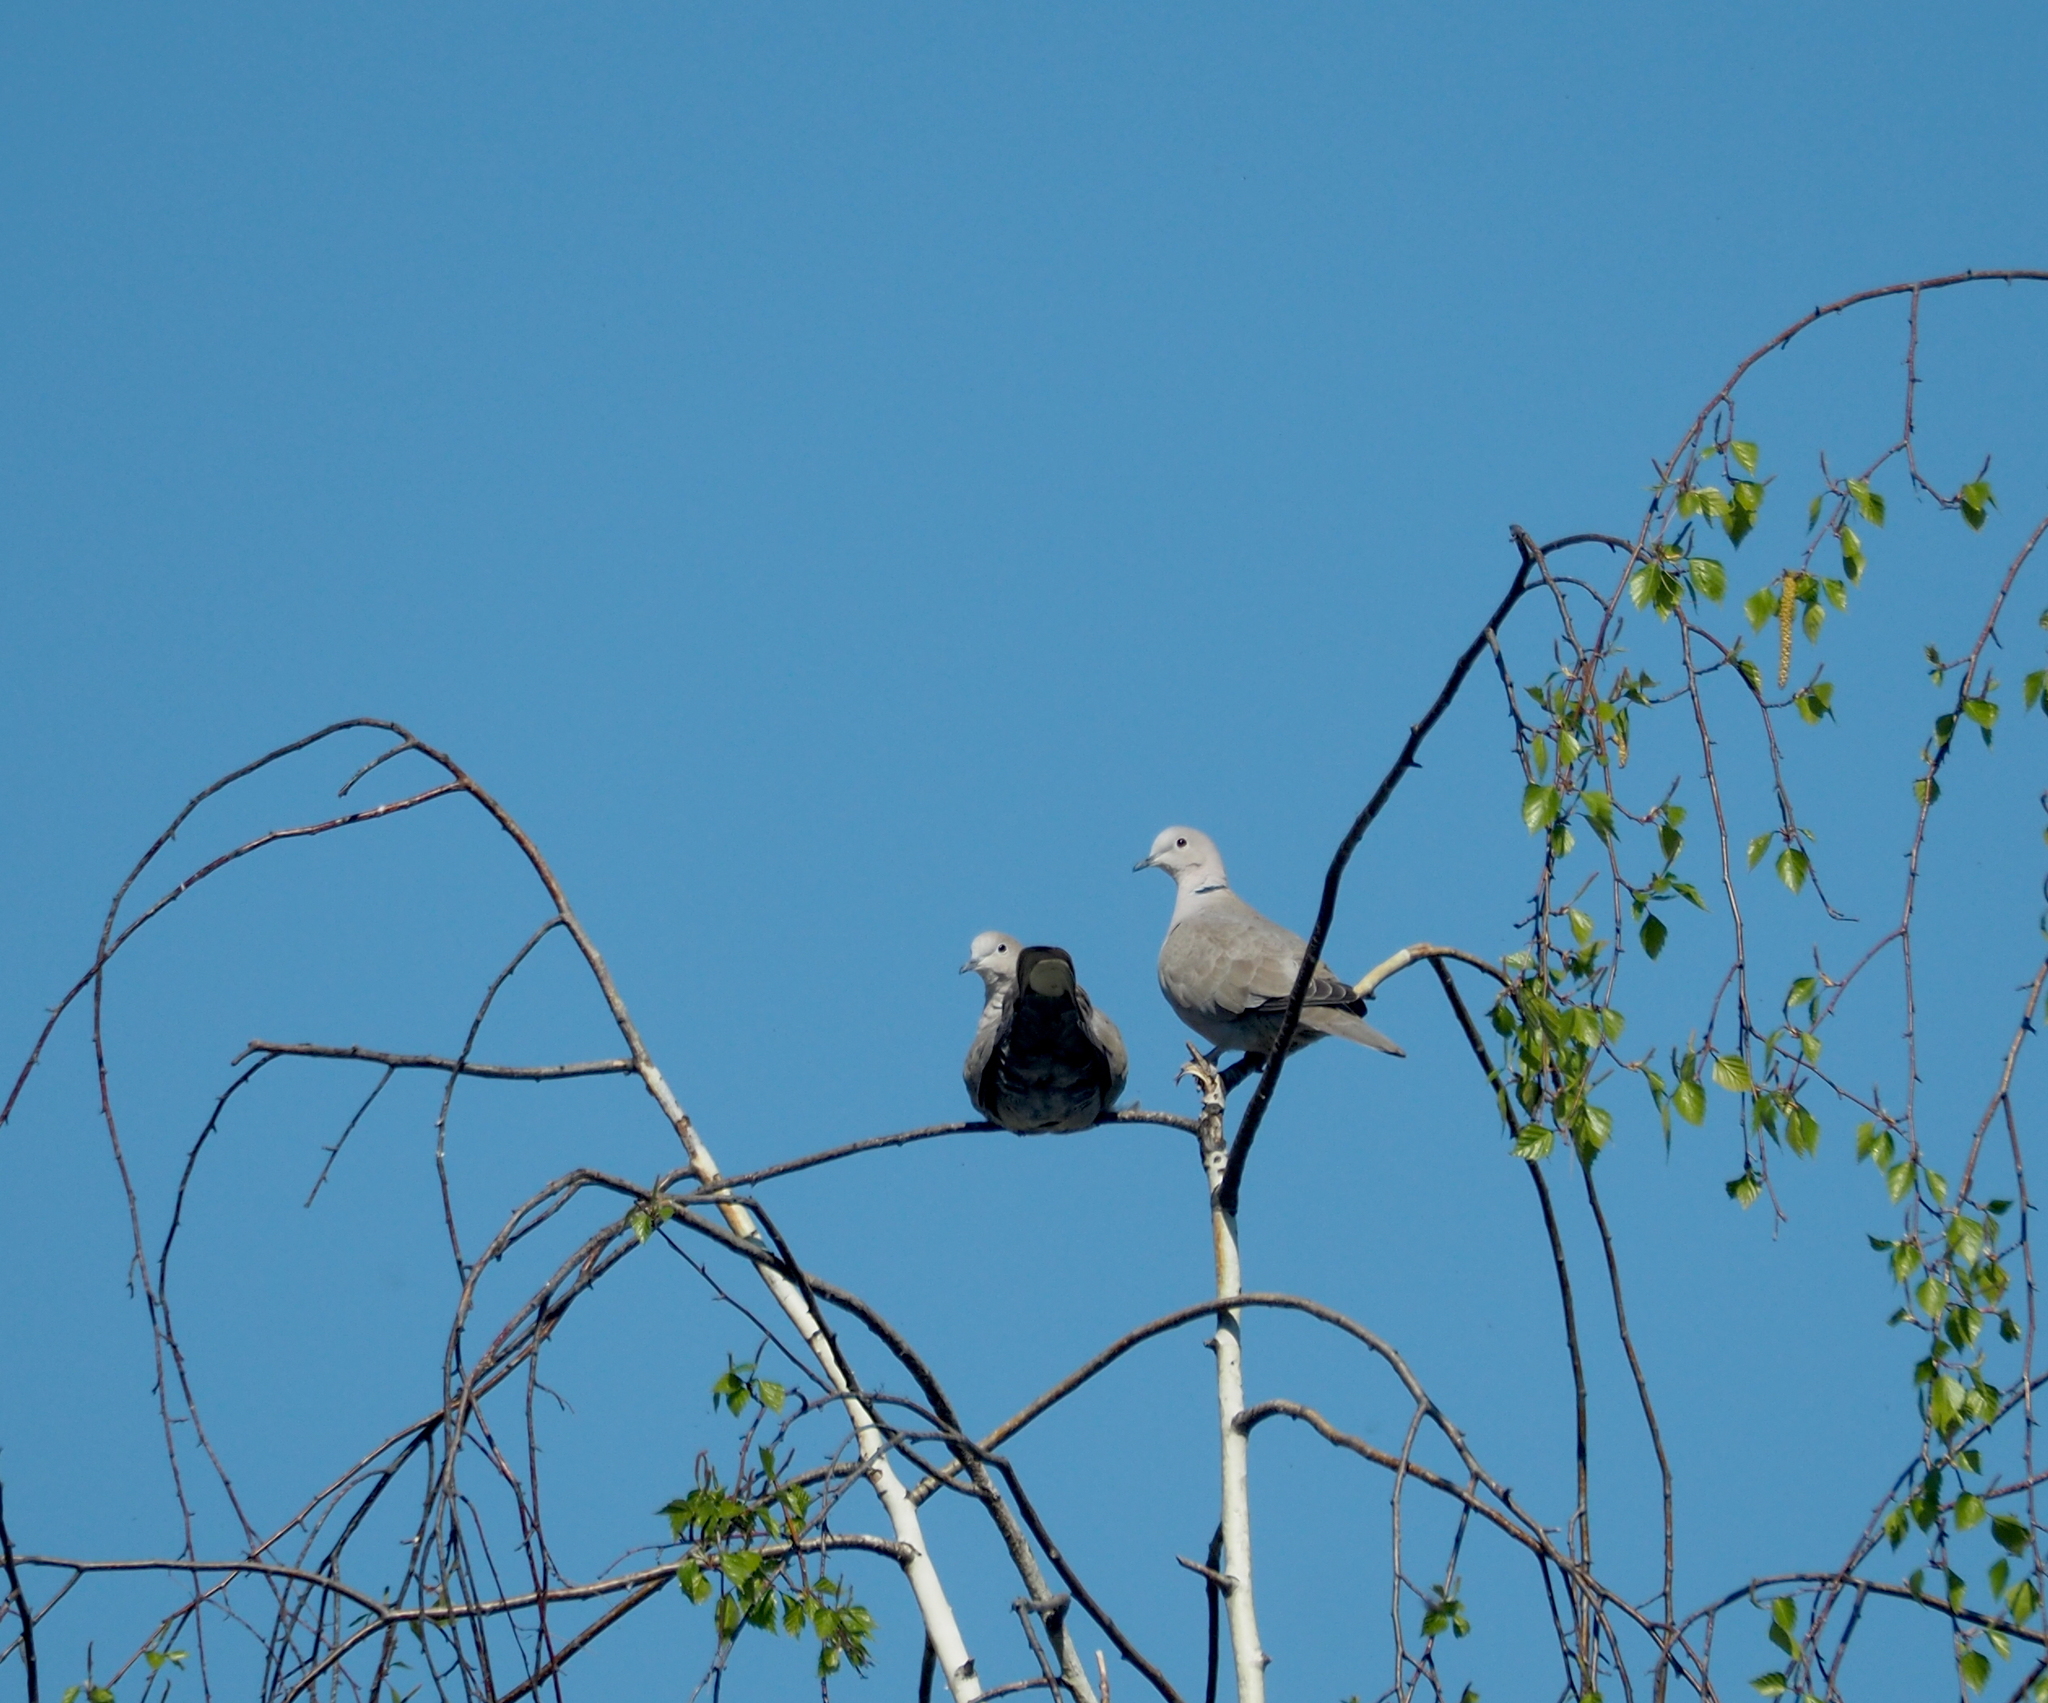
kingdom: Animalia
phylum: Chordata
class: Aves
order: Columbiformes
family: Columbidae
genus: Streptopelia
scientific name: Streptopelia decaocto
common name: Eurasian collared dove
